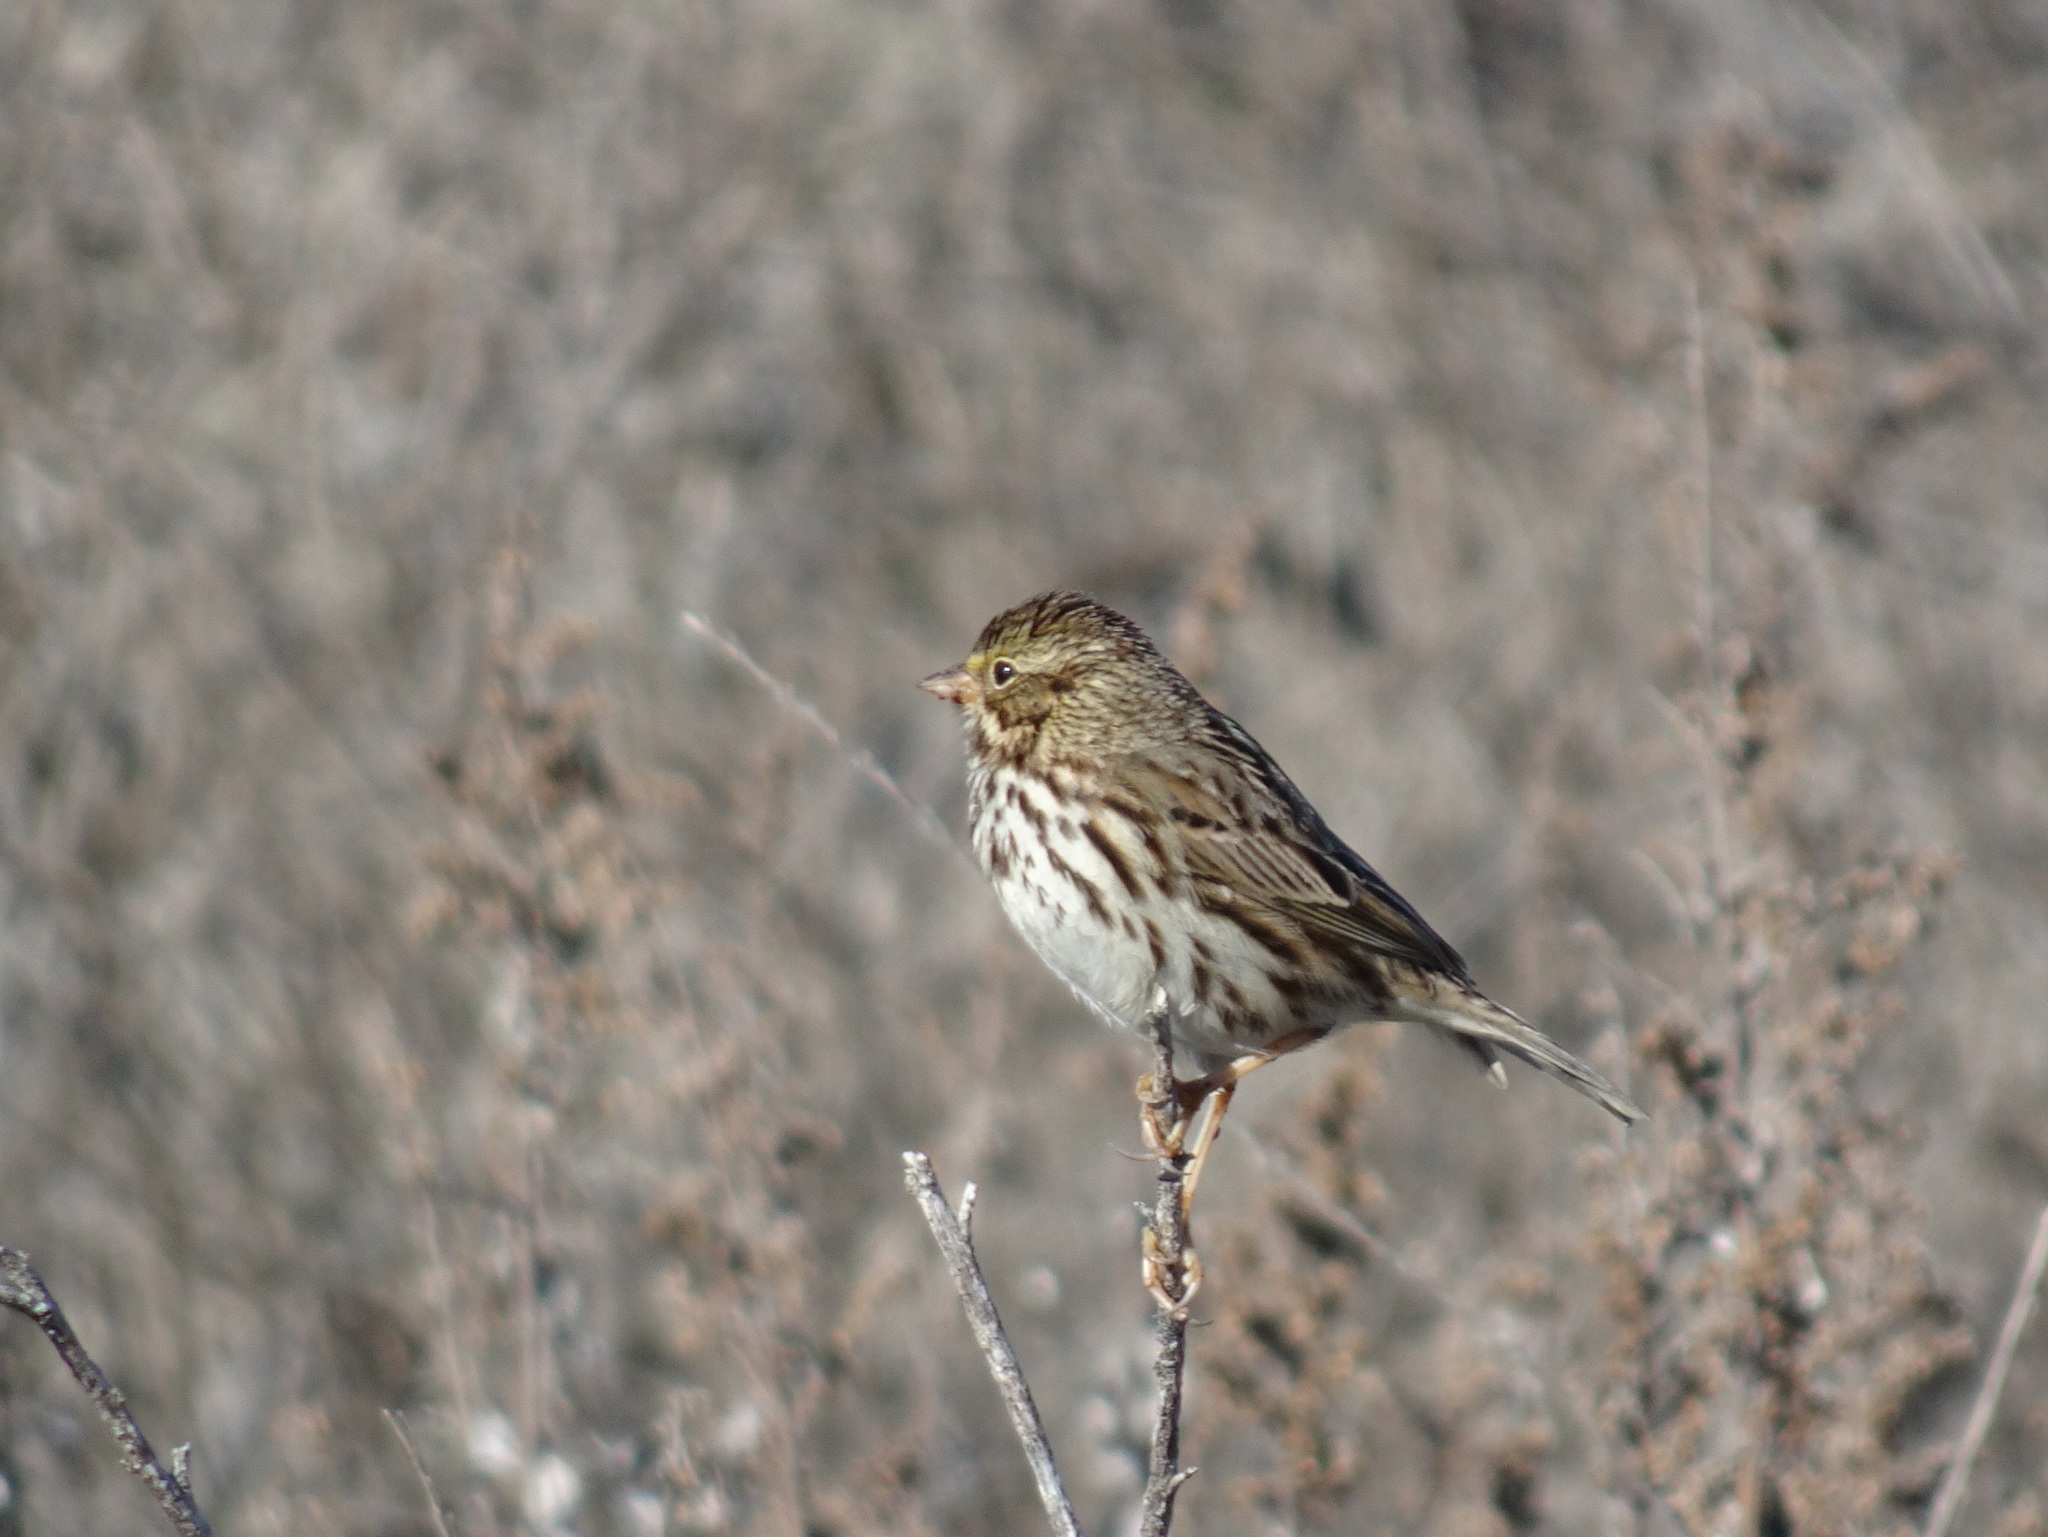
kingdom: Animalia
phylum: Chordata
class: Aves
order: Passeriformes
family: Passerellidae
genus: Passerculus
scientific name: Passerculus sandwichensis
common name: Savannah sparrow
